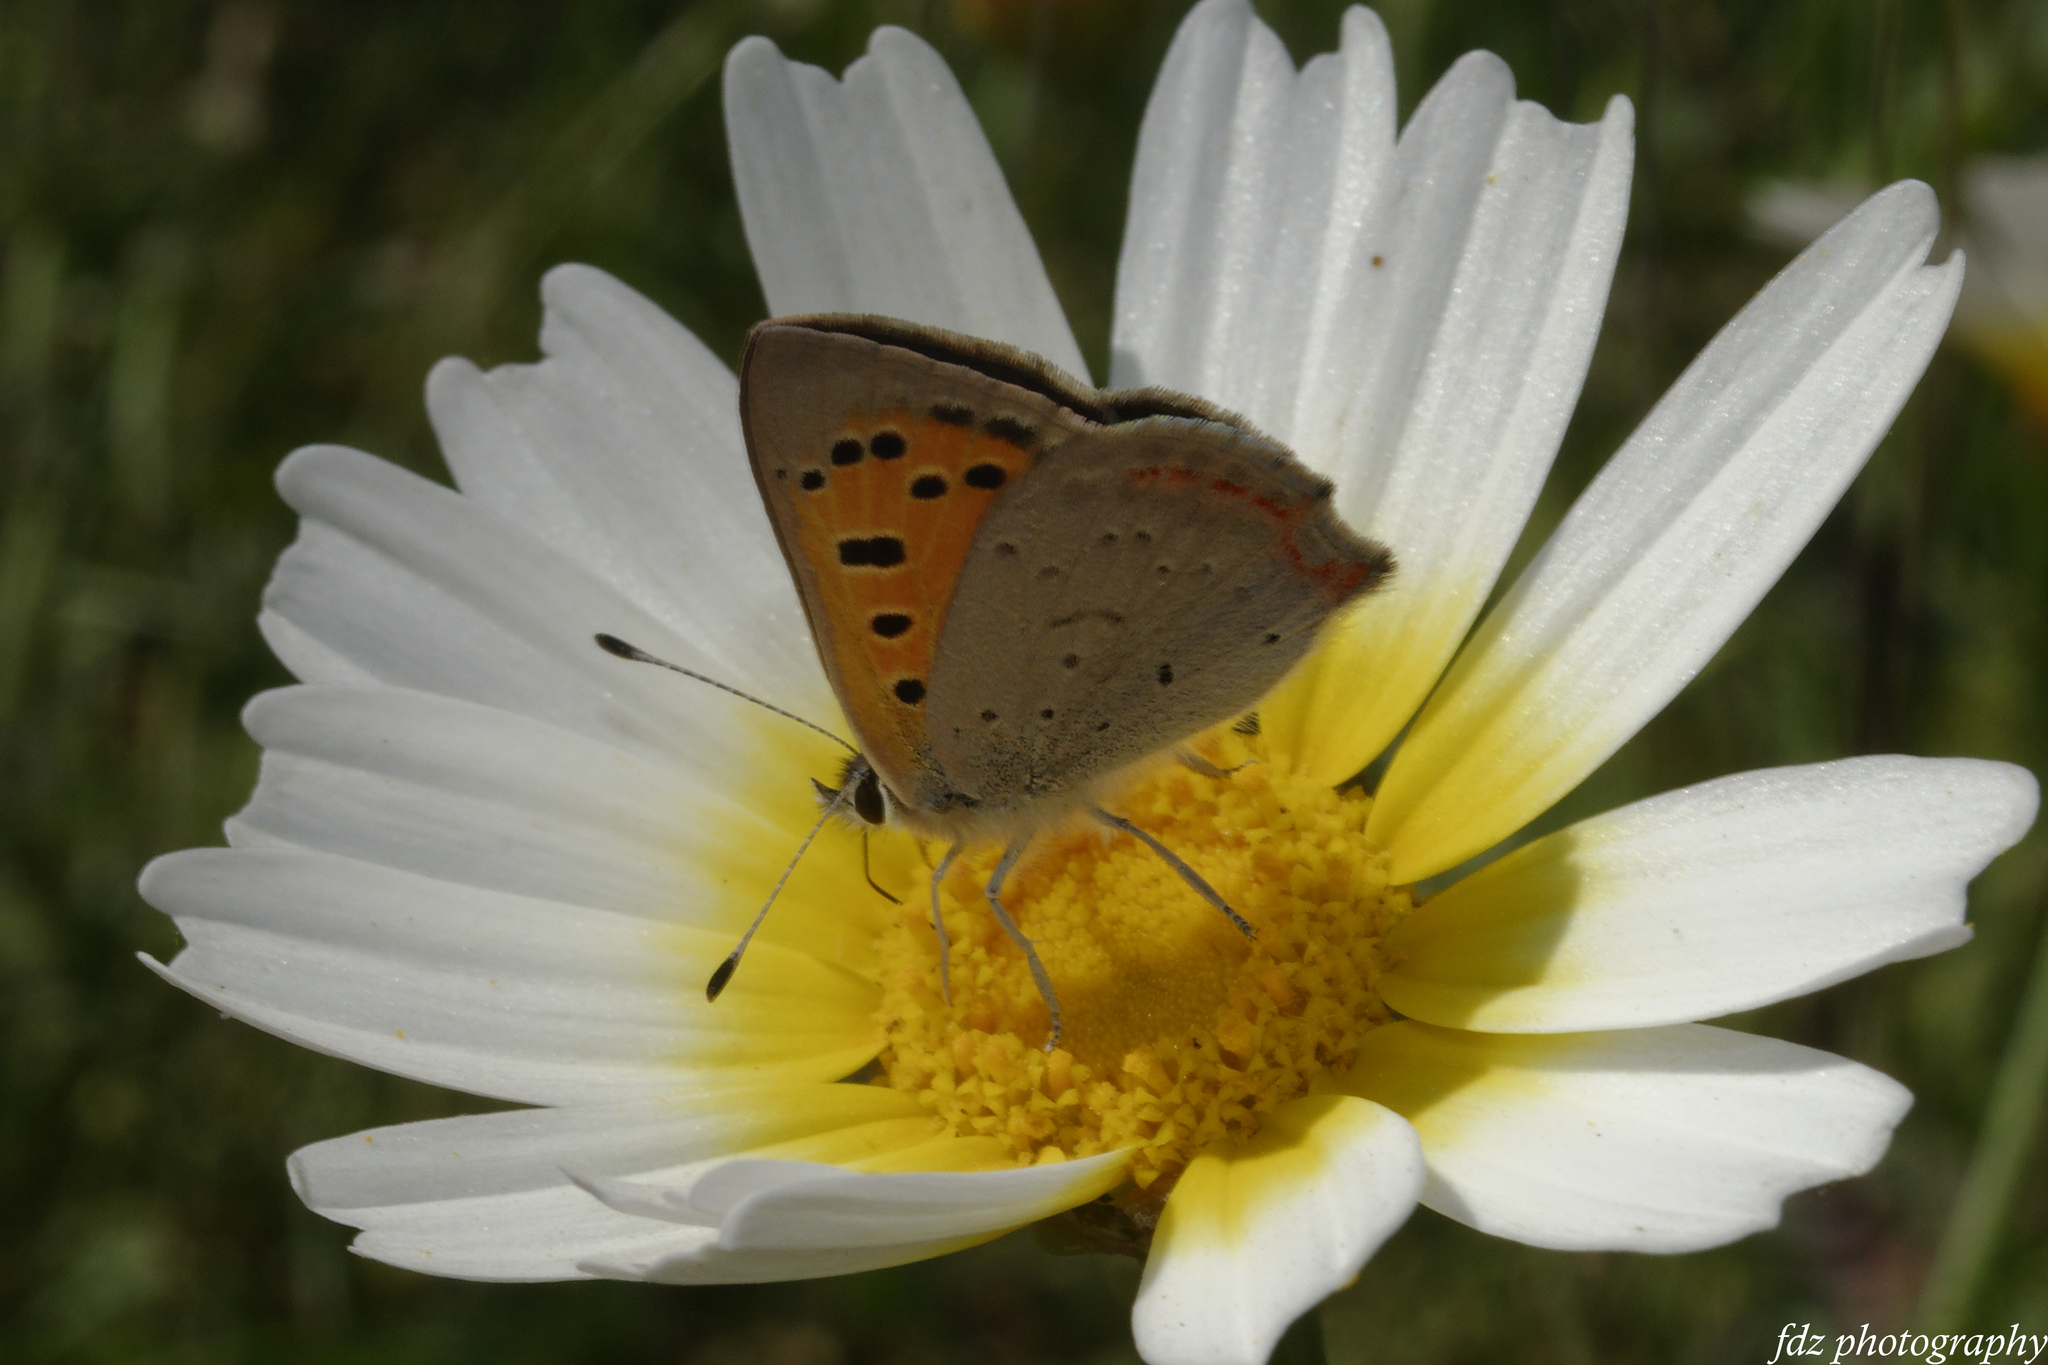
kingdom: Animalia
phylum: Arthropoda
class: Insecta
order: Lepidoptera
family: Lycaenidae
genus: Lycaena
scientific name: Lycaena phlaeas
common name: Small copper
